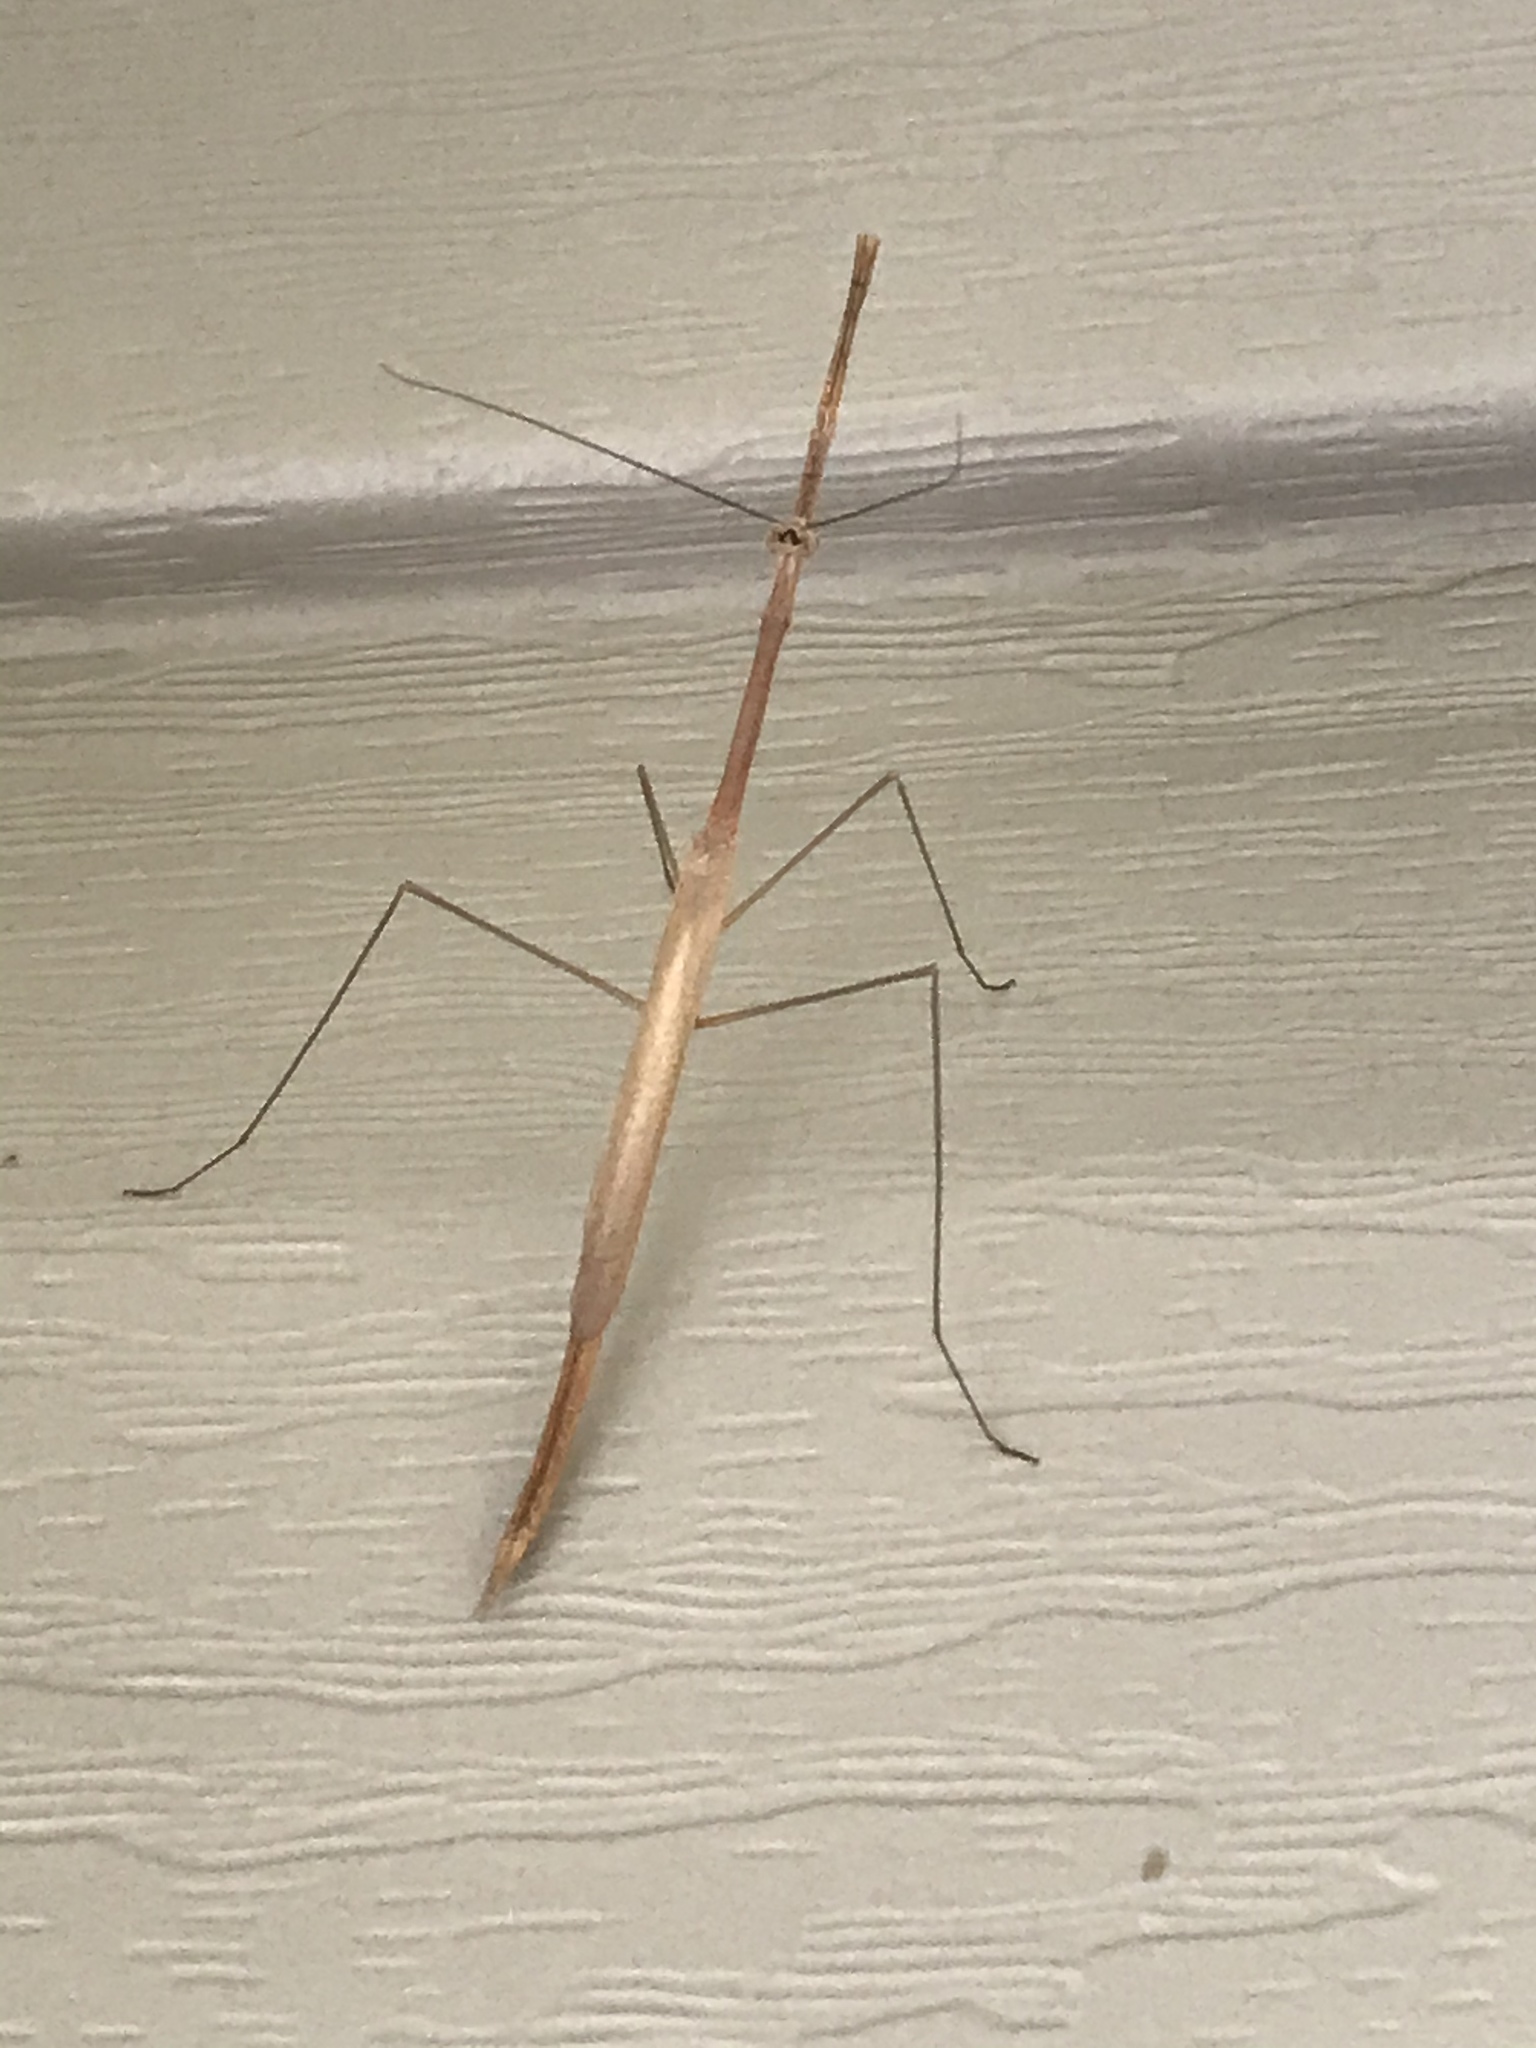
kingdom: Animalia
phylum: Arthropoda
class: Insecta
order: Mantodea
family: Thespidae
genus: Thesprotia
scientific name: Thesprotia graminis
